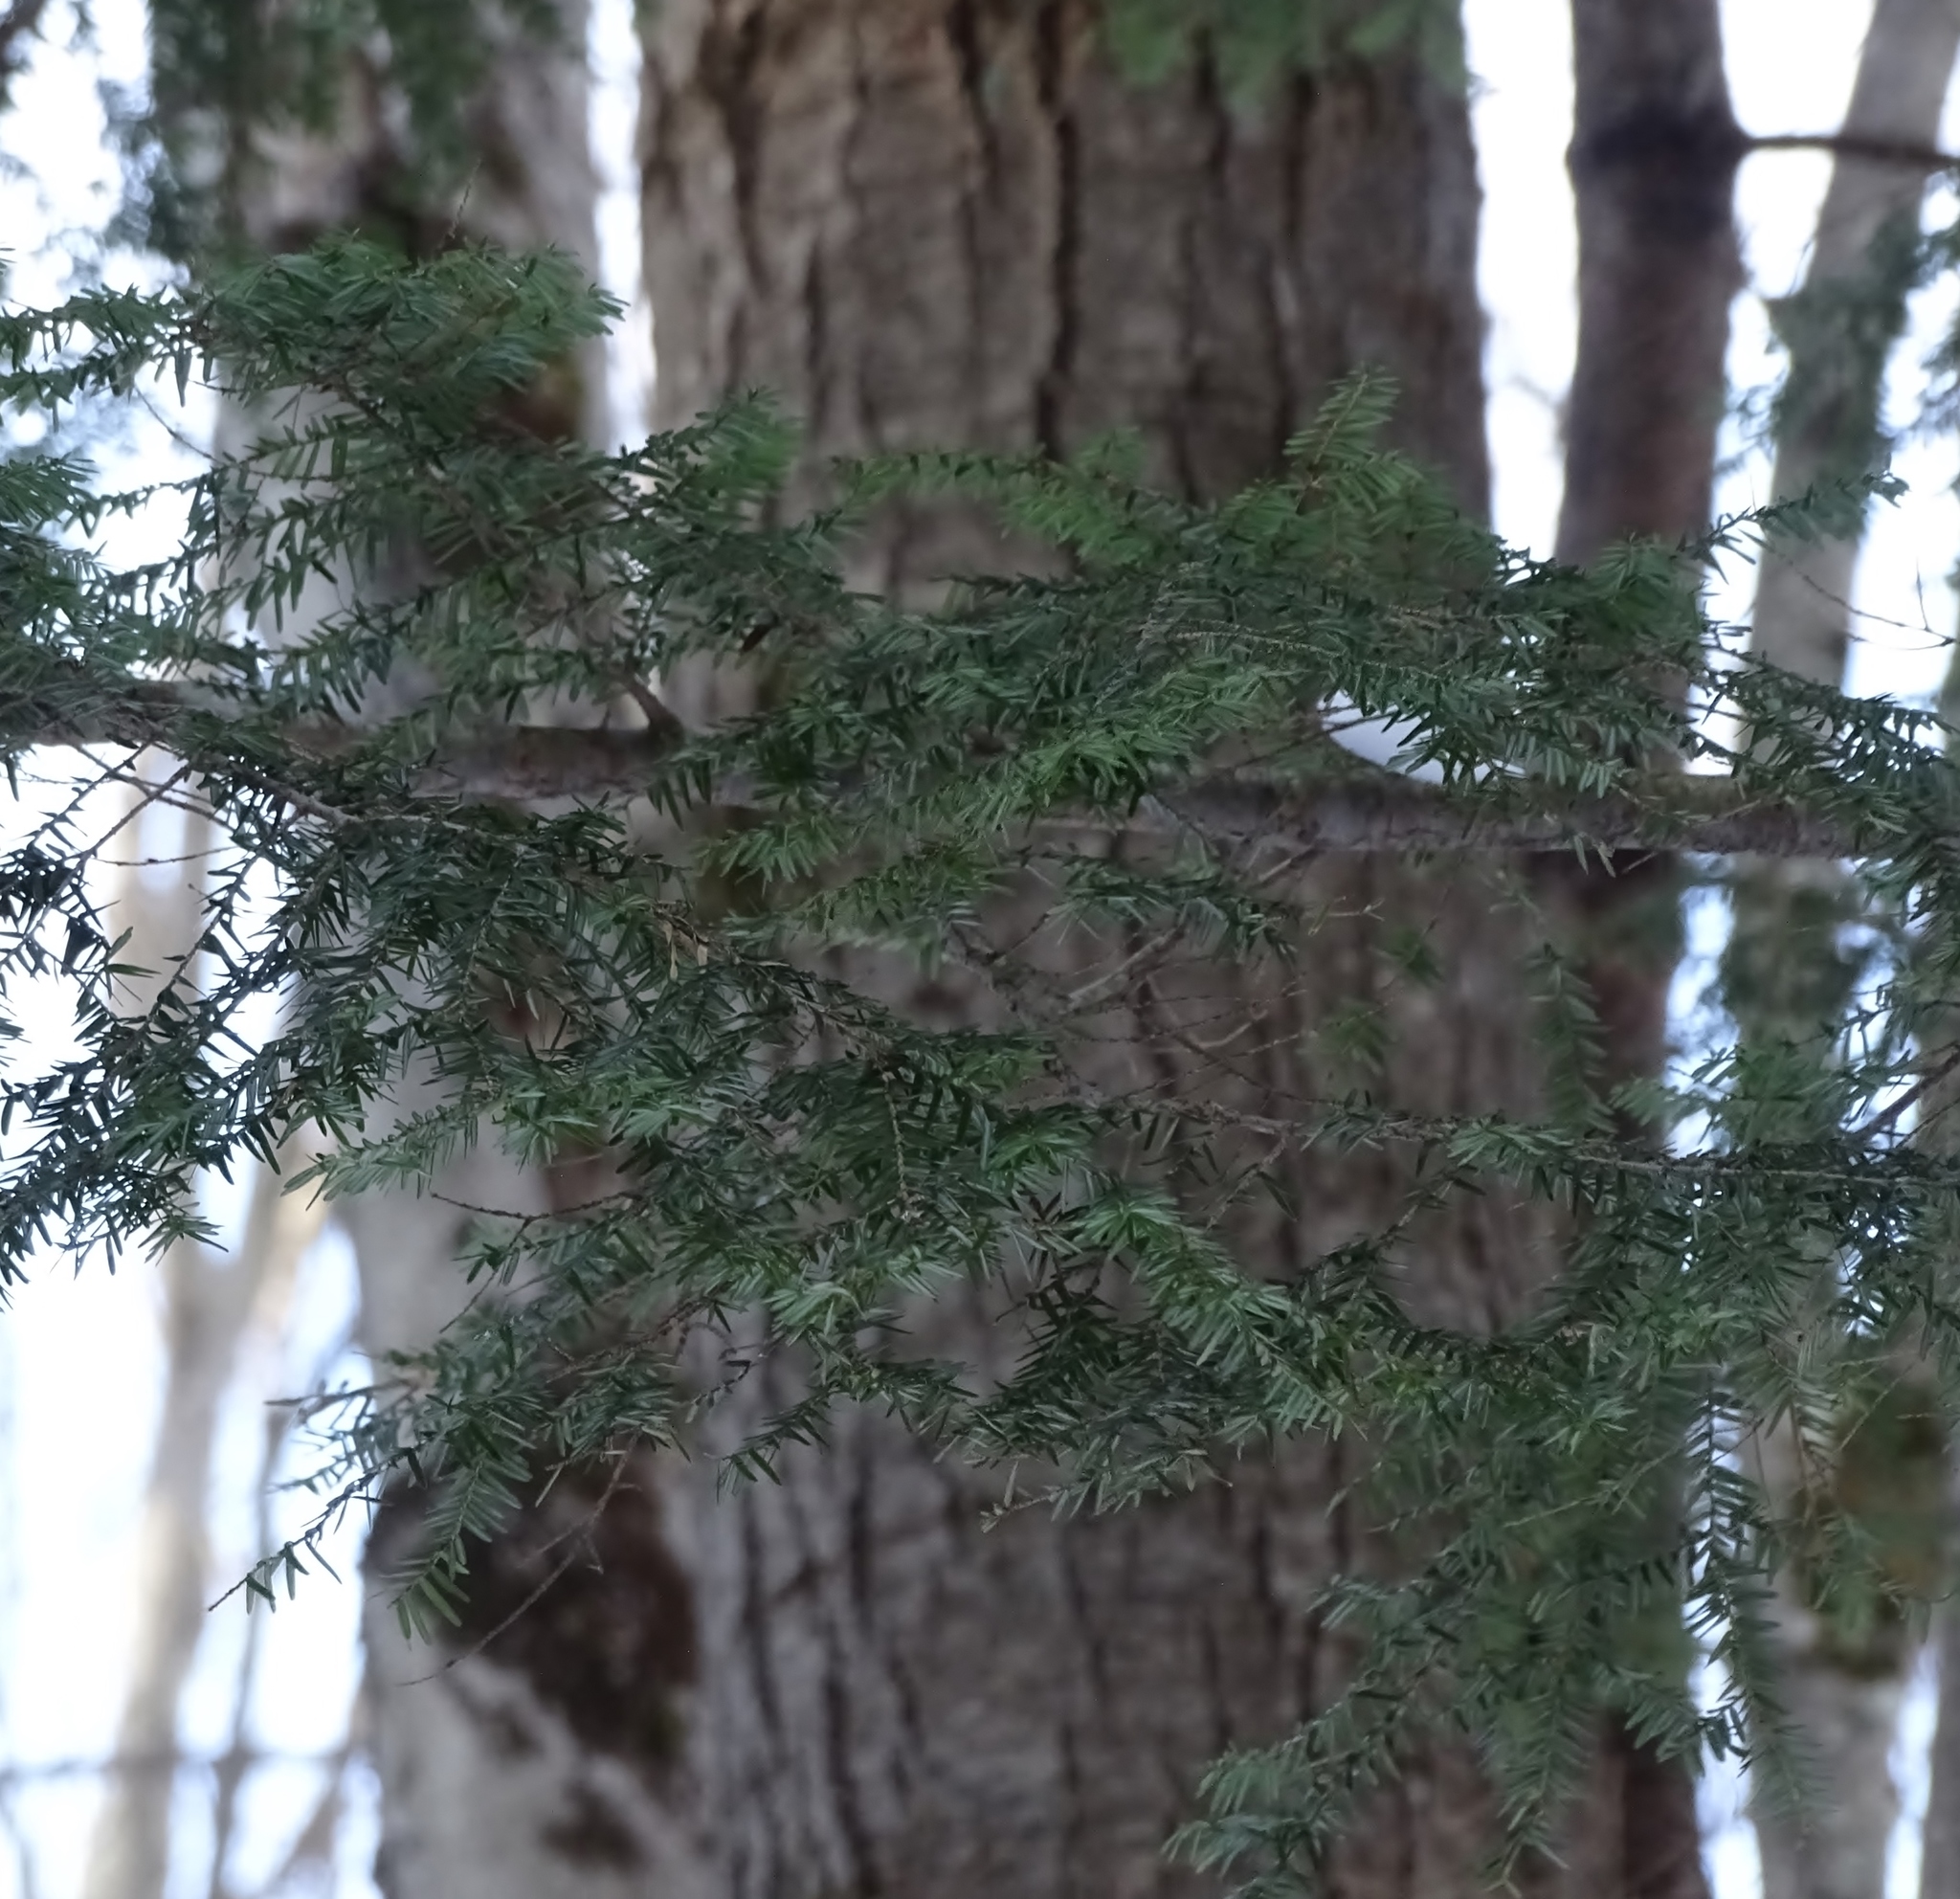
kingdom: Plantae
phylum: Tracheophyta
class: Pinopsida
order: Pinales
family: Pinaceae
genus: Tsuga
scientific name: Tsuga canadensis
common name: Eastern hemlock
